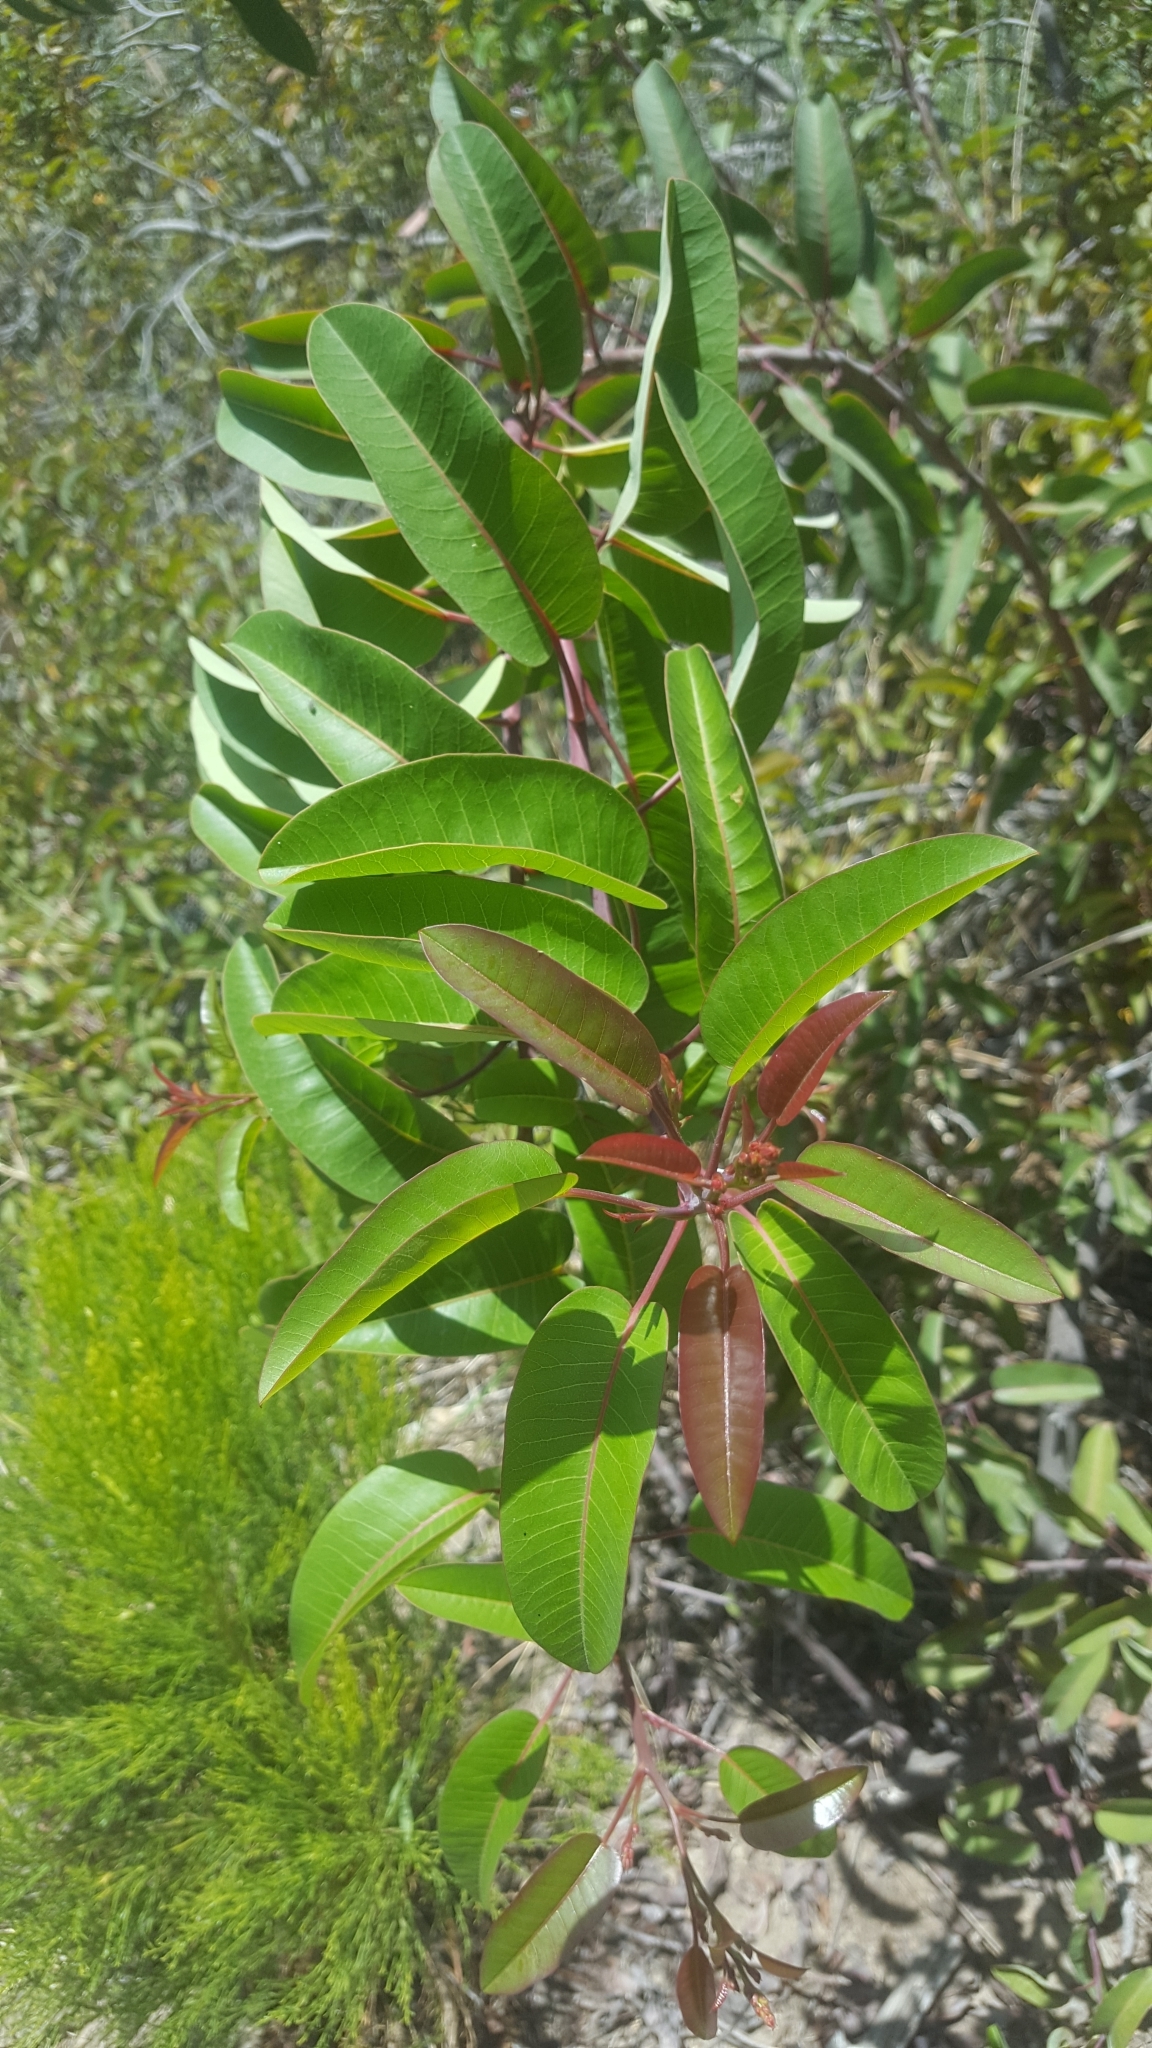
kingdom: Plantae
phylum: Tracheophyta
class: Magnoliopsida
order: Sapindales
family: Anacardiaceae
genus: Malosma
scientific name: Malosma laurina
